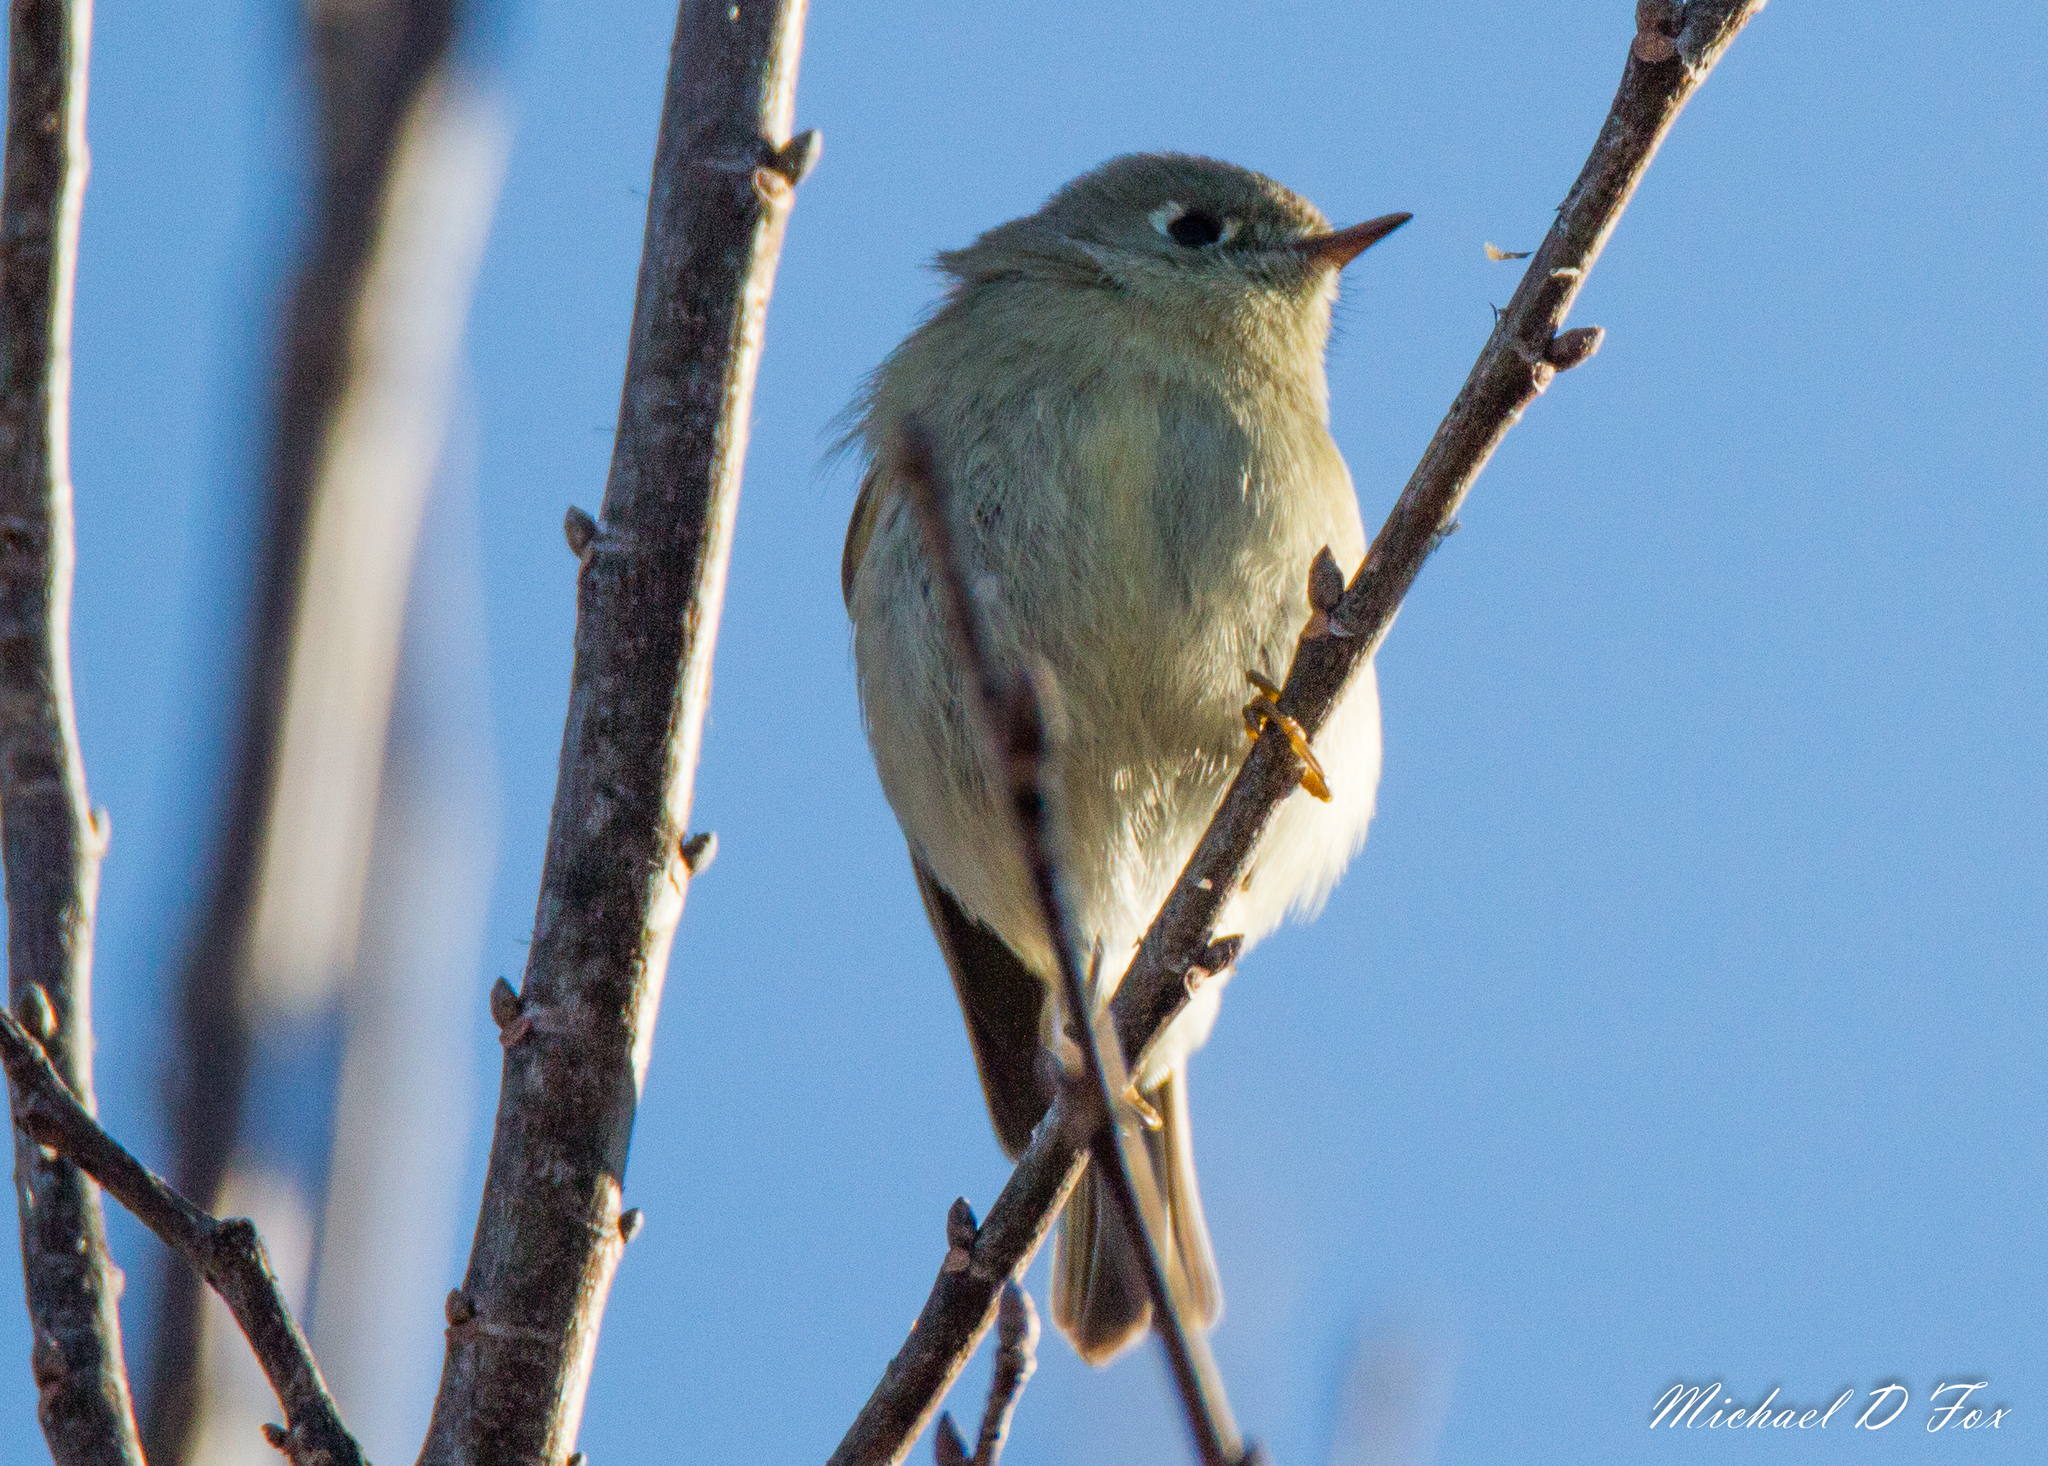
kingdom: Animalia
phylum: Chordata
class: Aves
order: Passeriformes
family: Regulidae
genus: Regulus
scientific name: Regulus calendula
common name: Ruby-crowned kinglet
